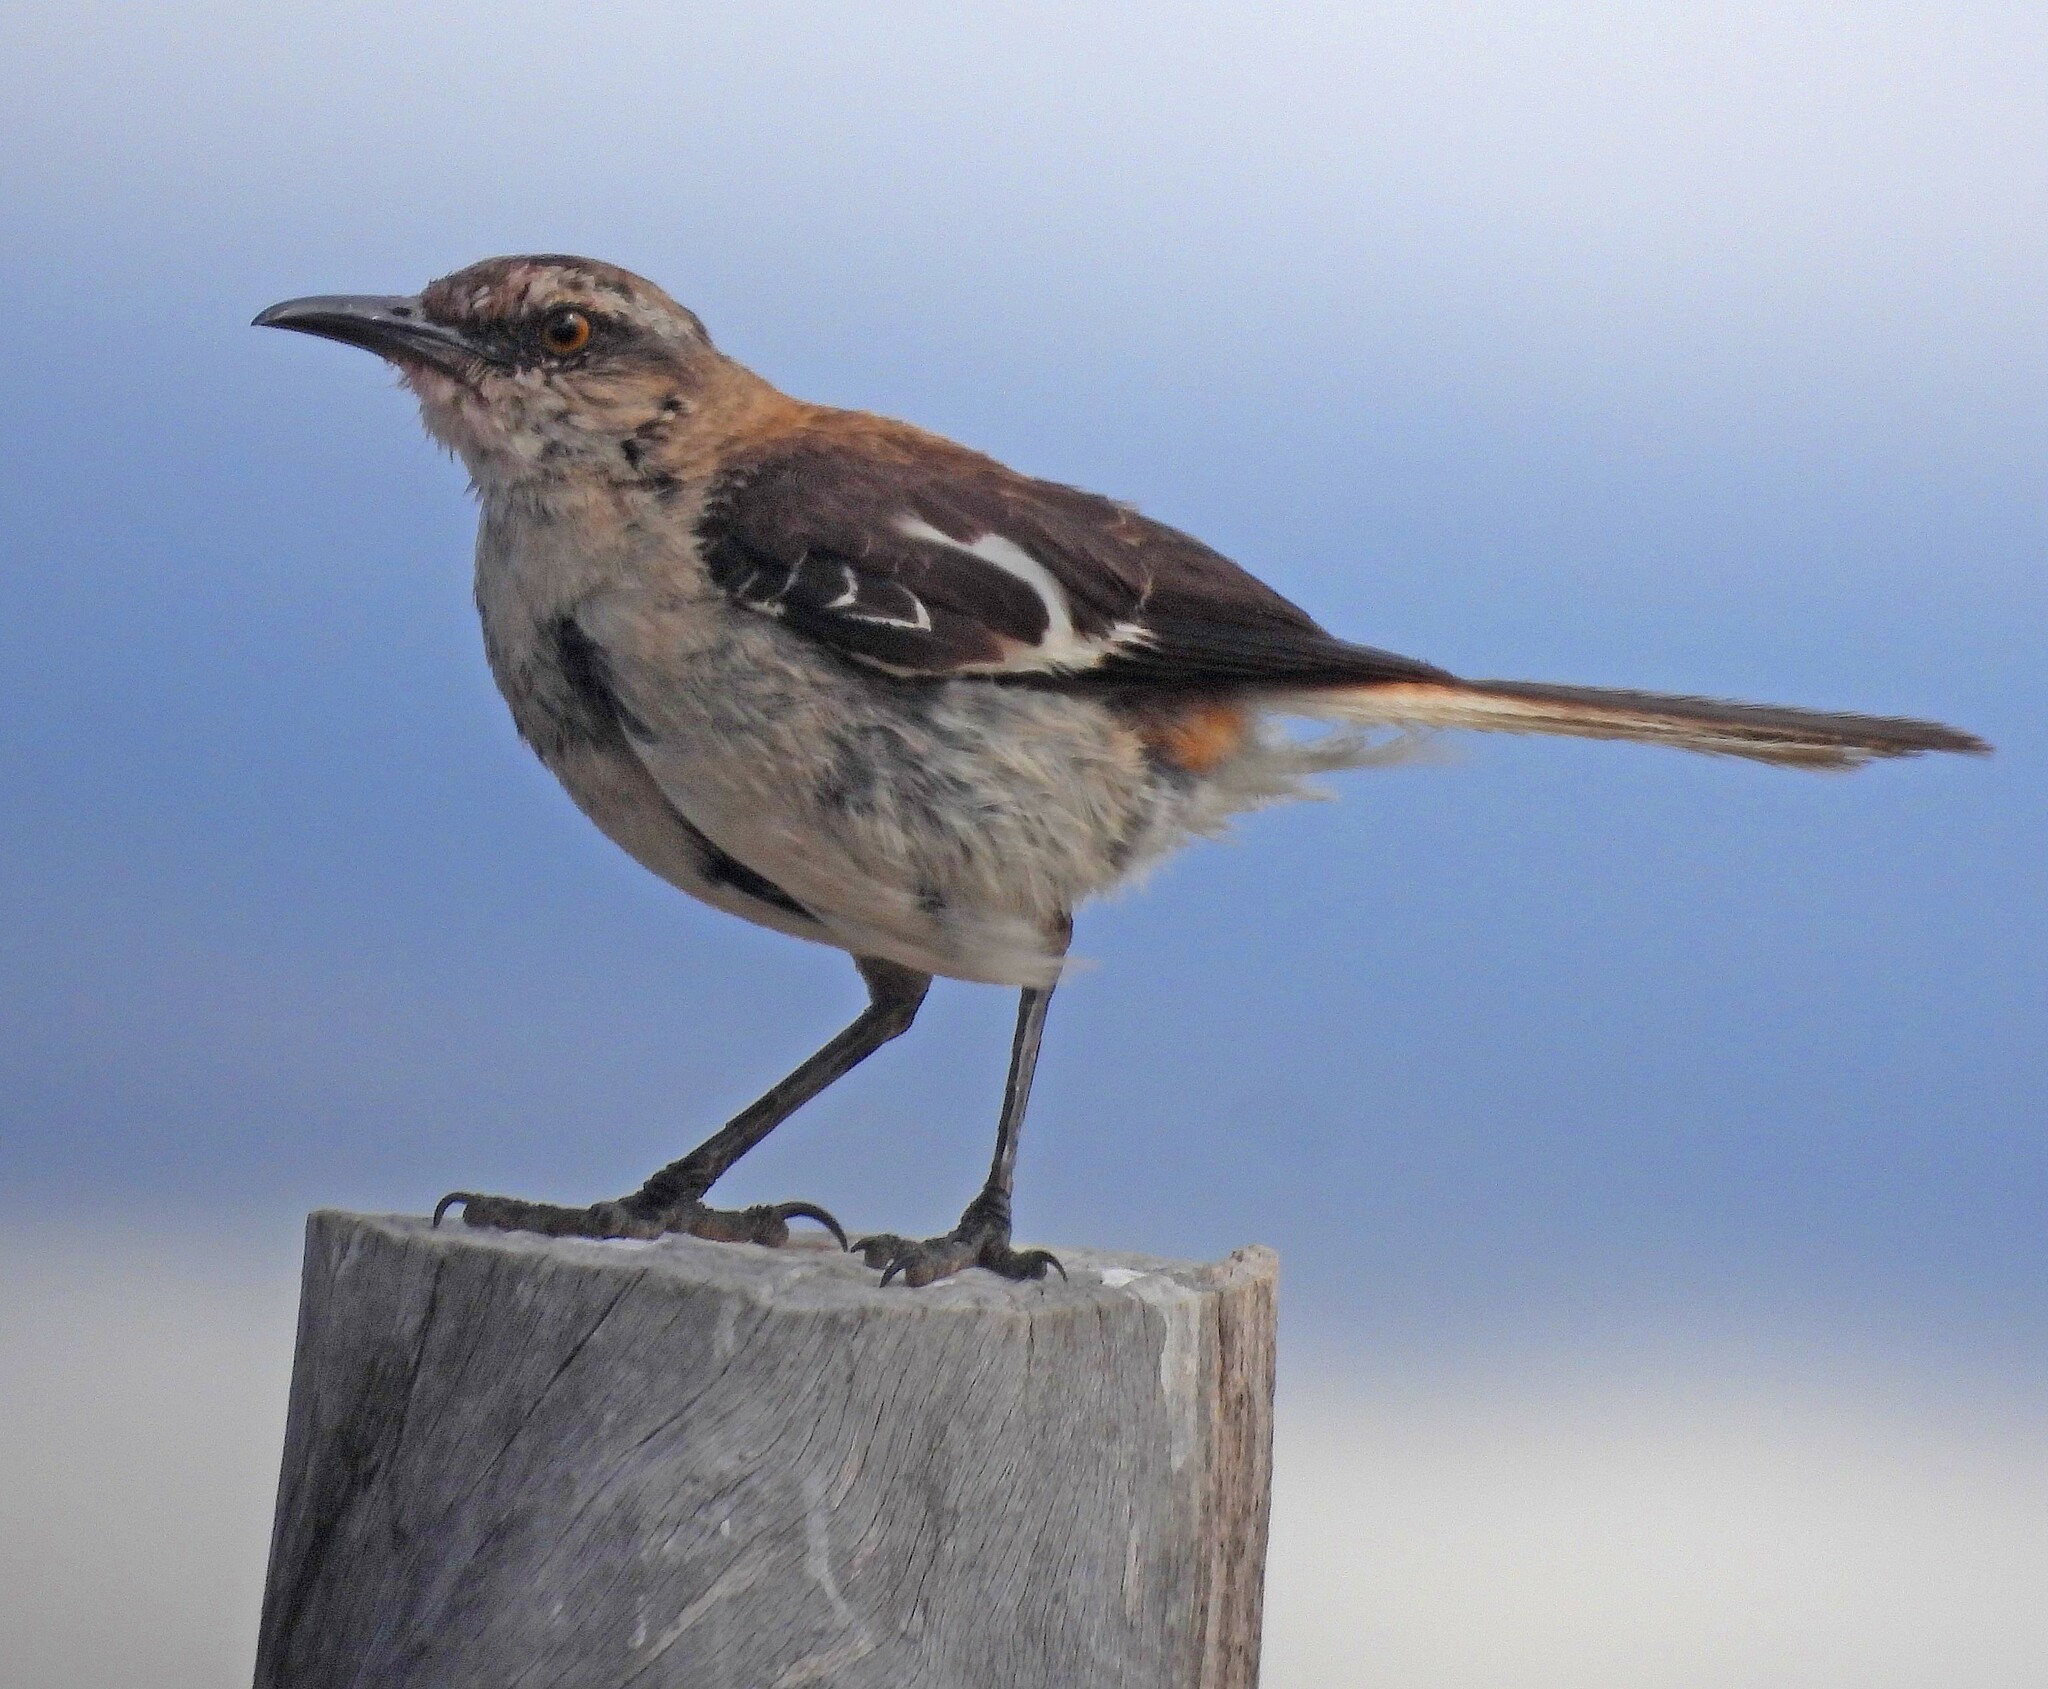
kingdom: Animalia
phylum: Chordata
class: Aves
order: Passeriformes
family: Mimidae
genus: Mimus
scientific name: Mimus dorsalis
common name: Brown-backed mockingbird
